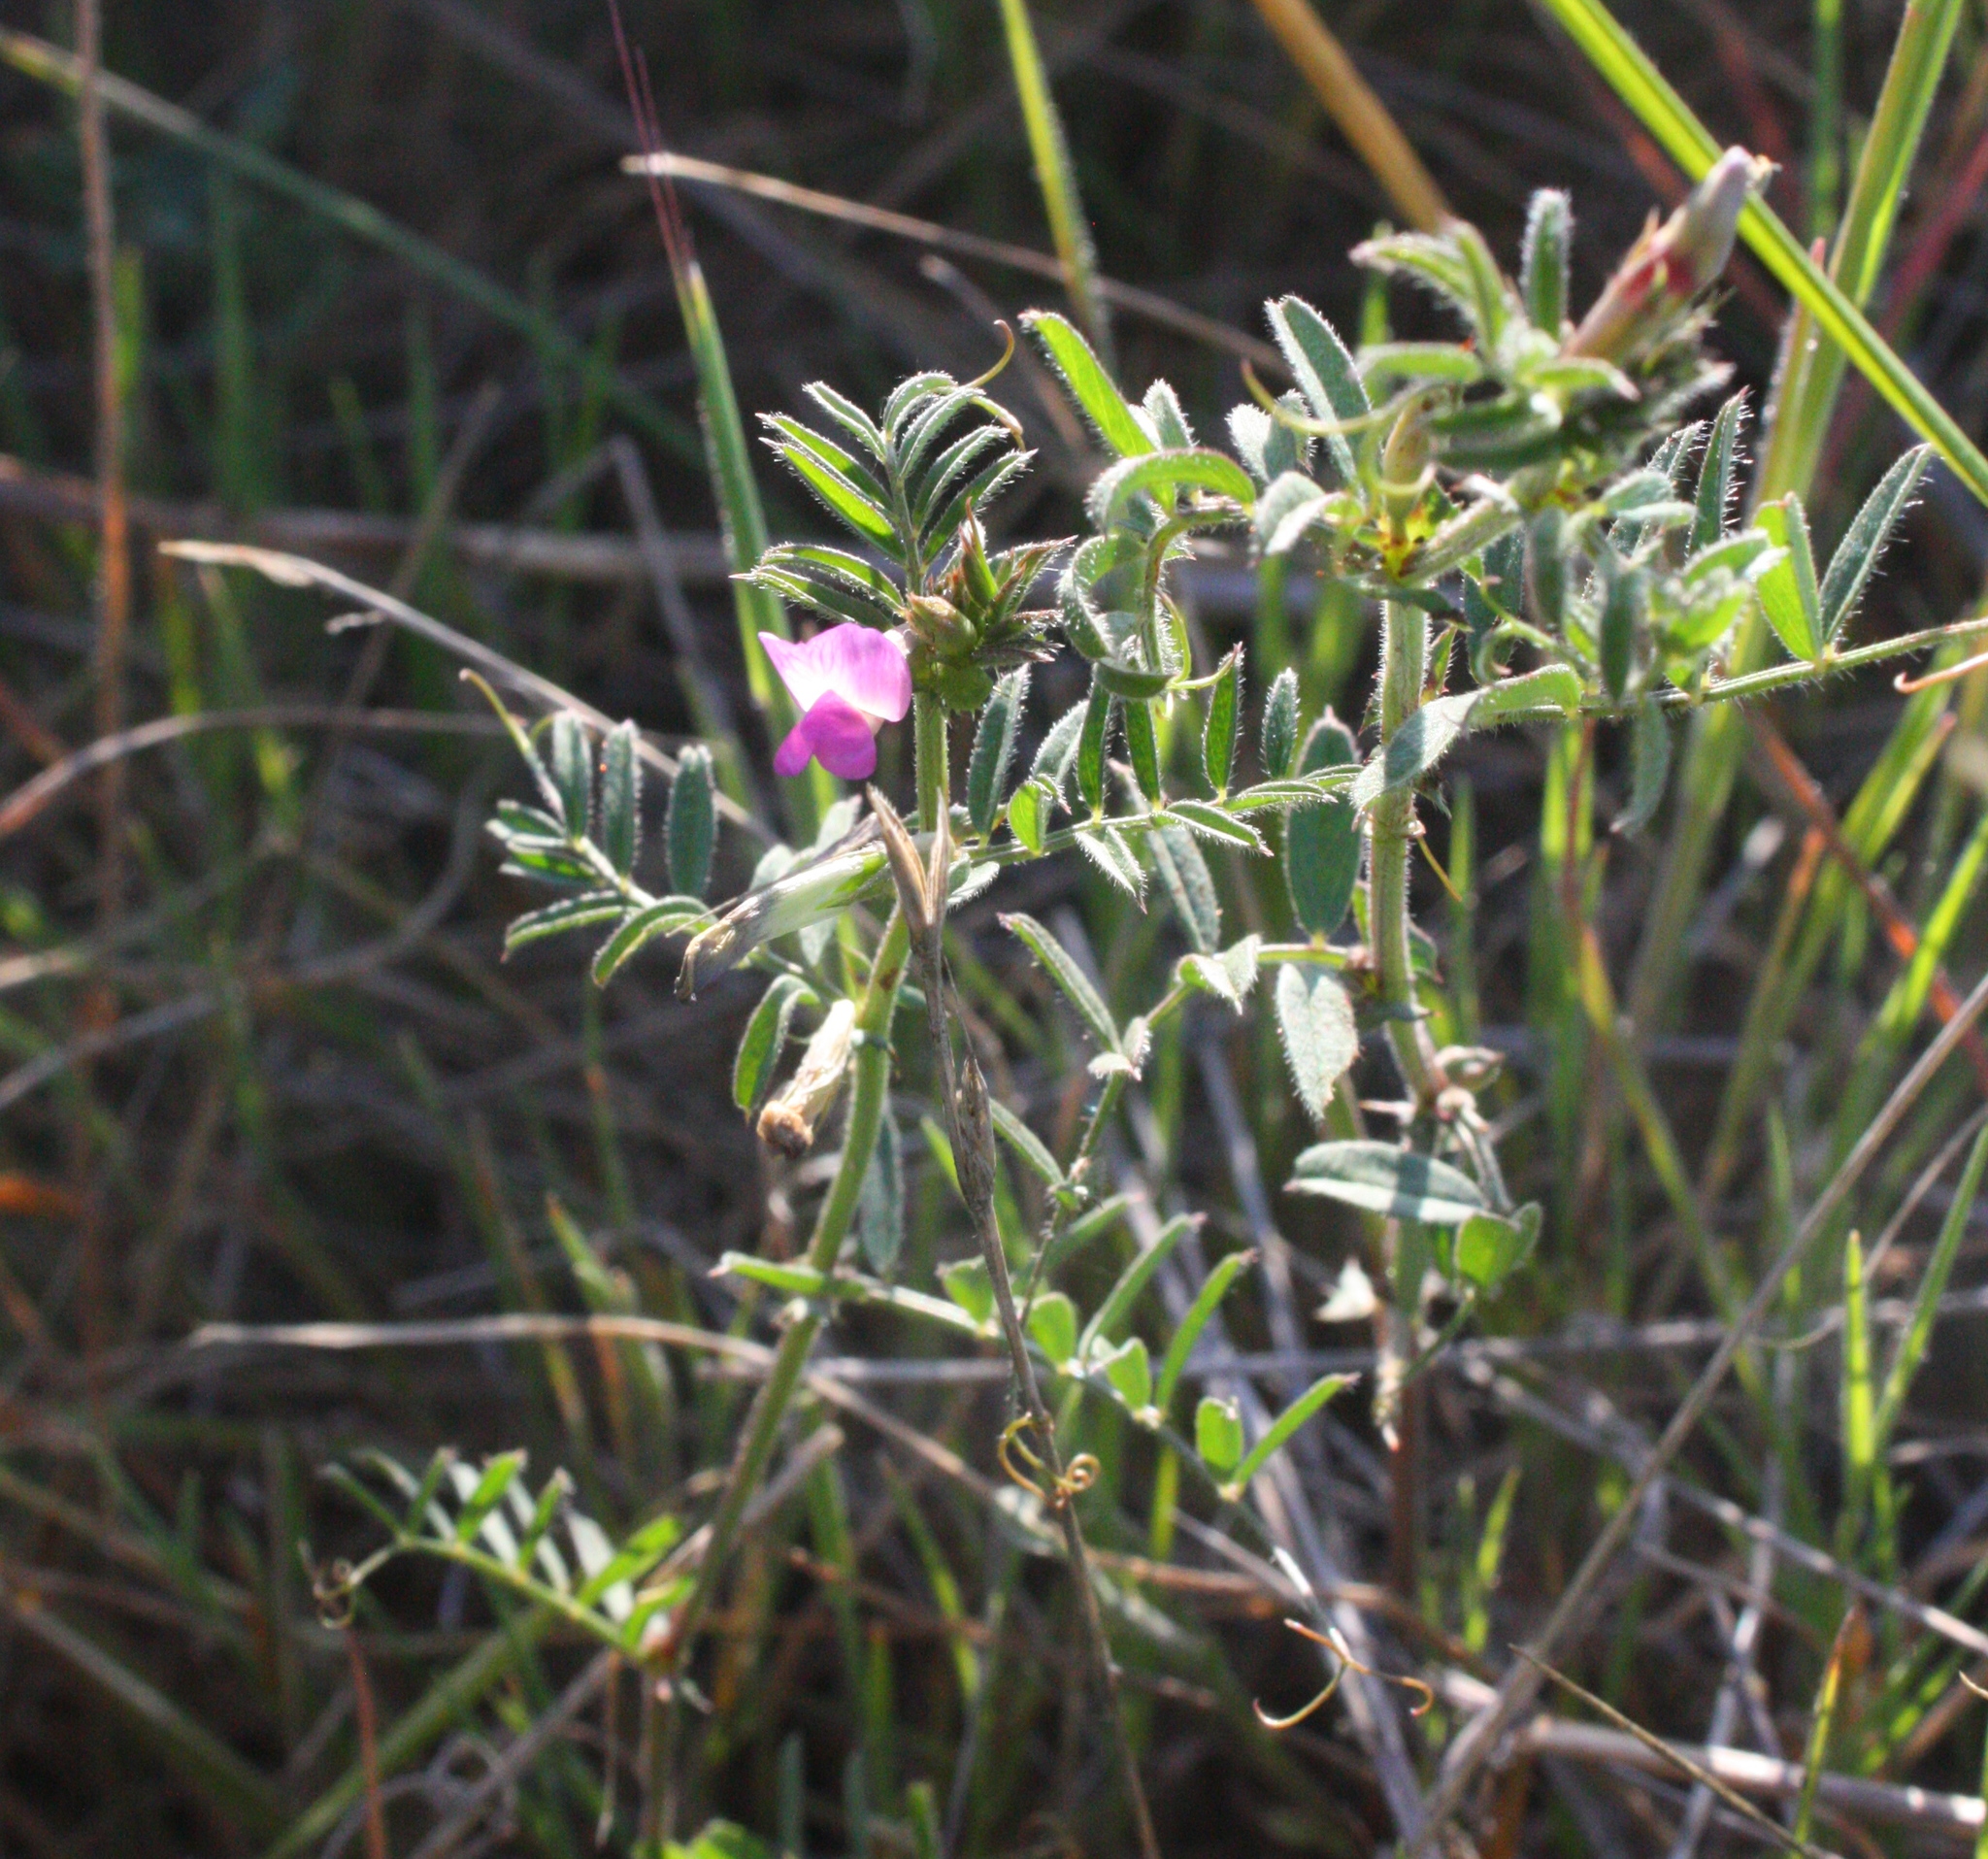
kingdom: Plantae
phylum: Tracheophyta
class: Magnoliopsida
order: Fabales
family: Fabaceae
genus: Vicia
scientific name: Vicia sativa
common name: Garden vetch
